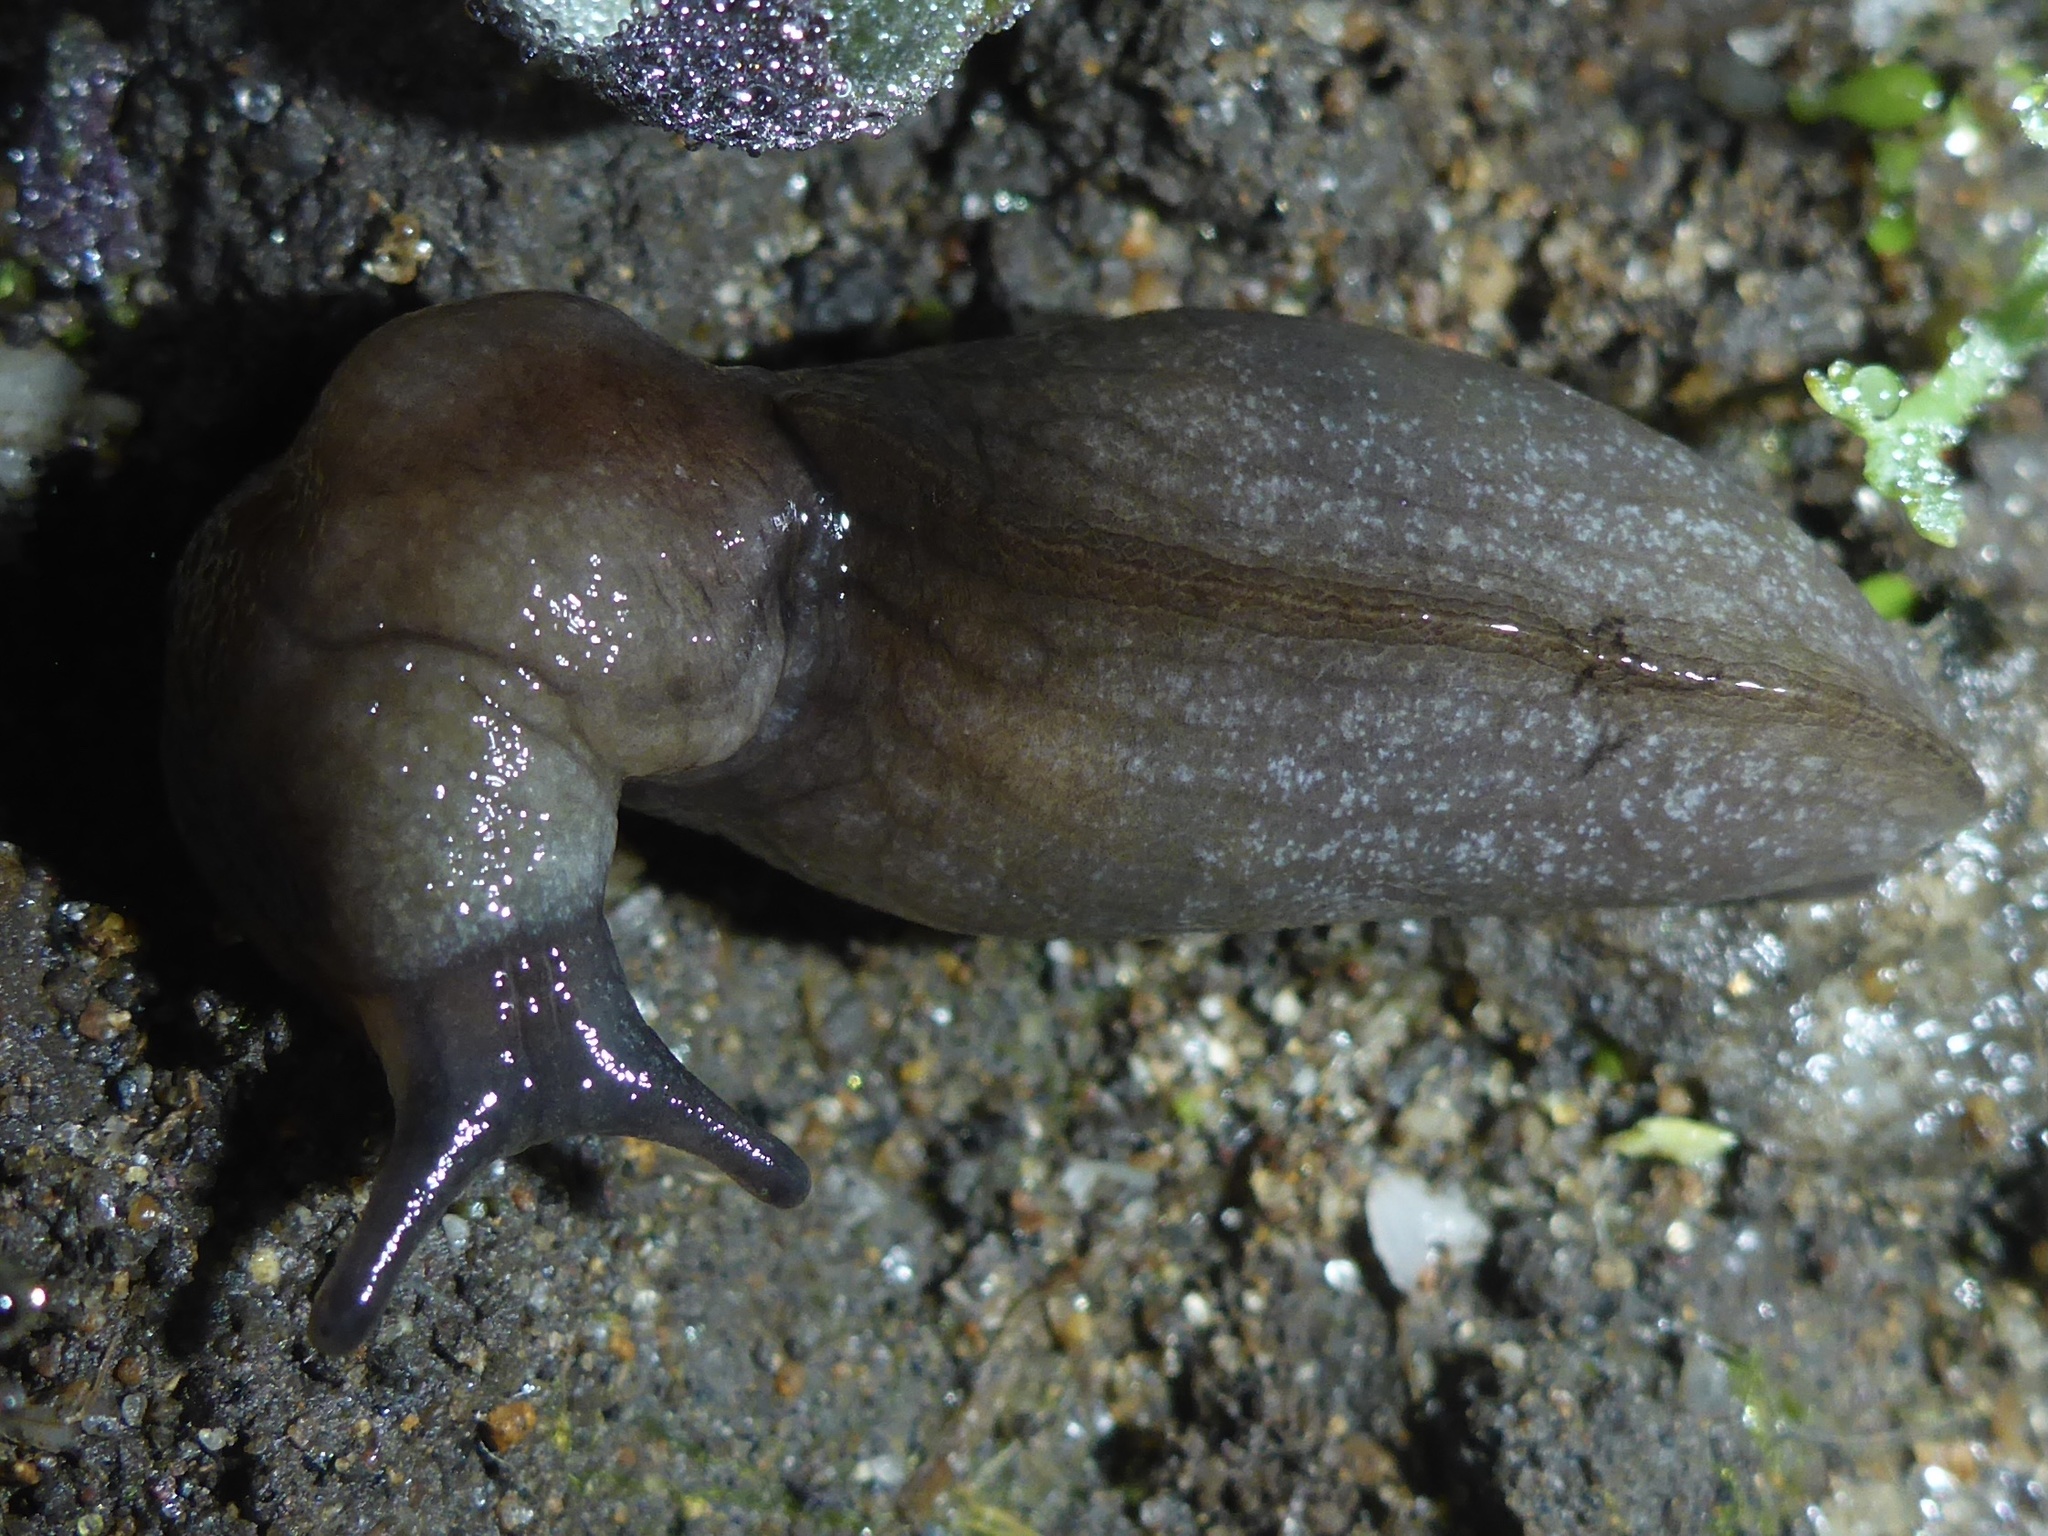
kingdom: Animalia
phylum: Mollusca
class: Gastropoda
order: Stylommatophora
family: Milacidae
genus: Milax
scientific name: Milax gagates
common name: Greenhouse slug
